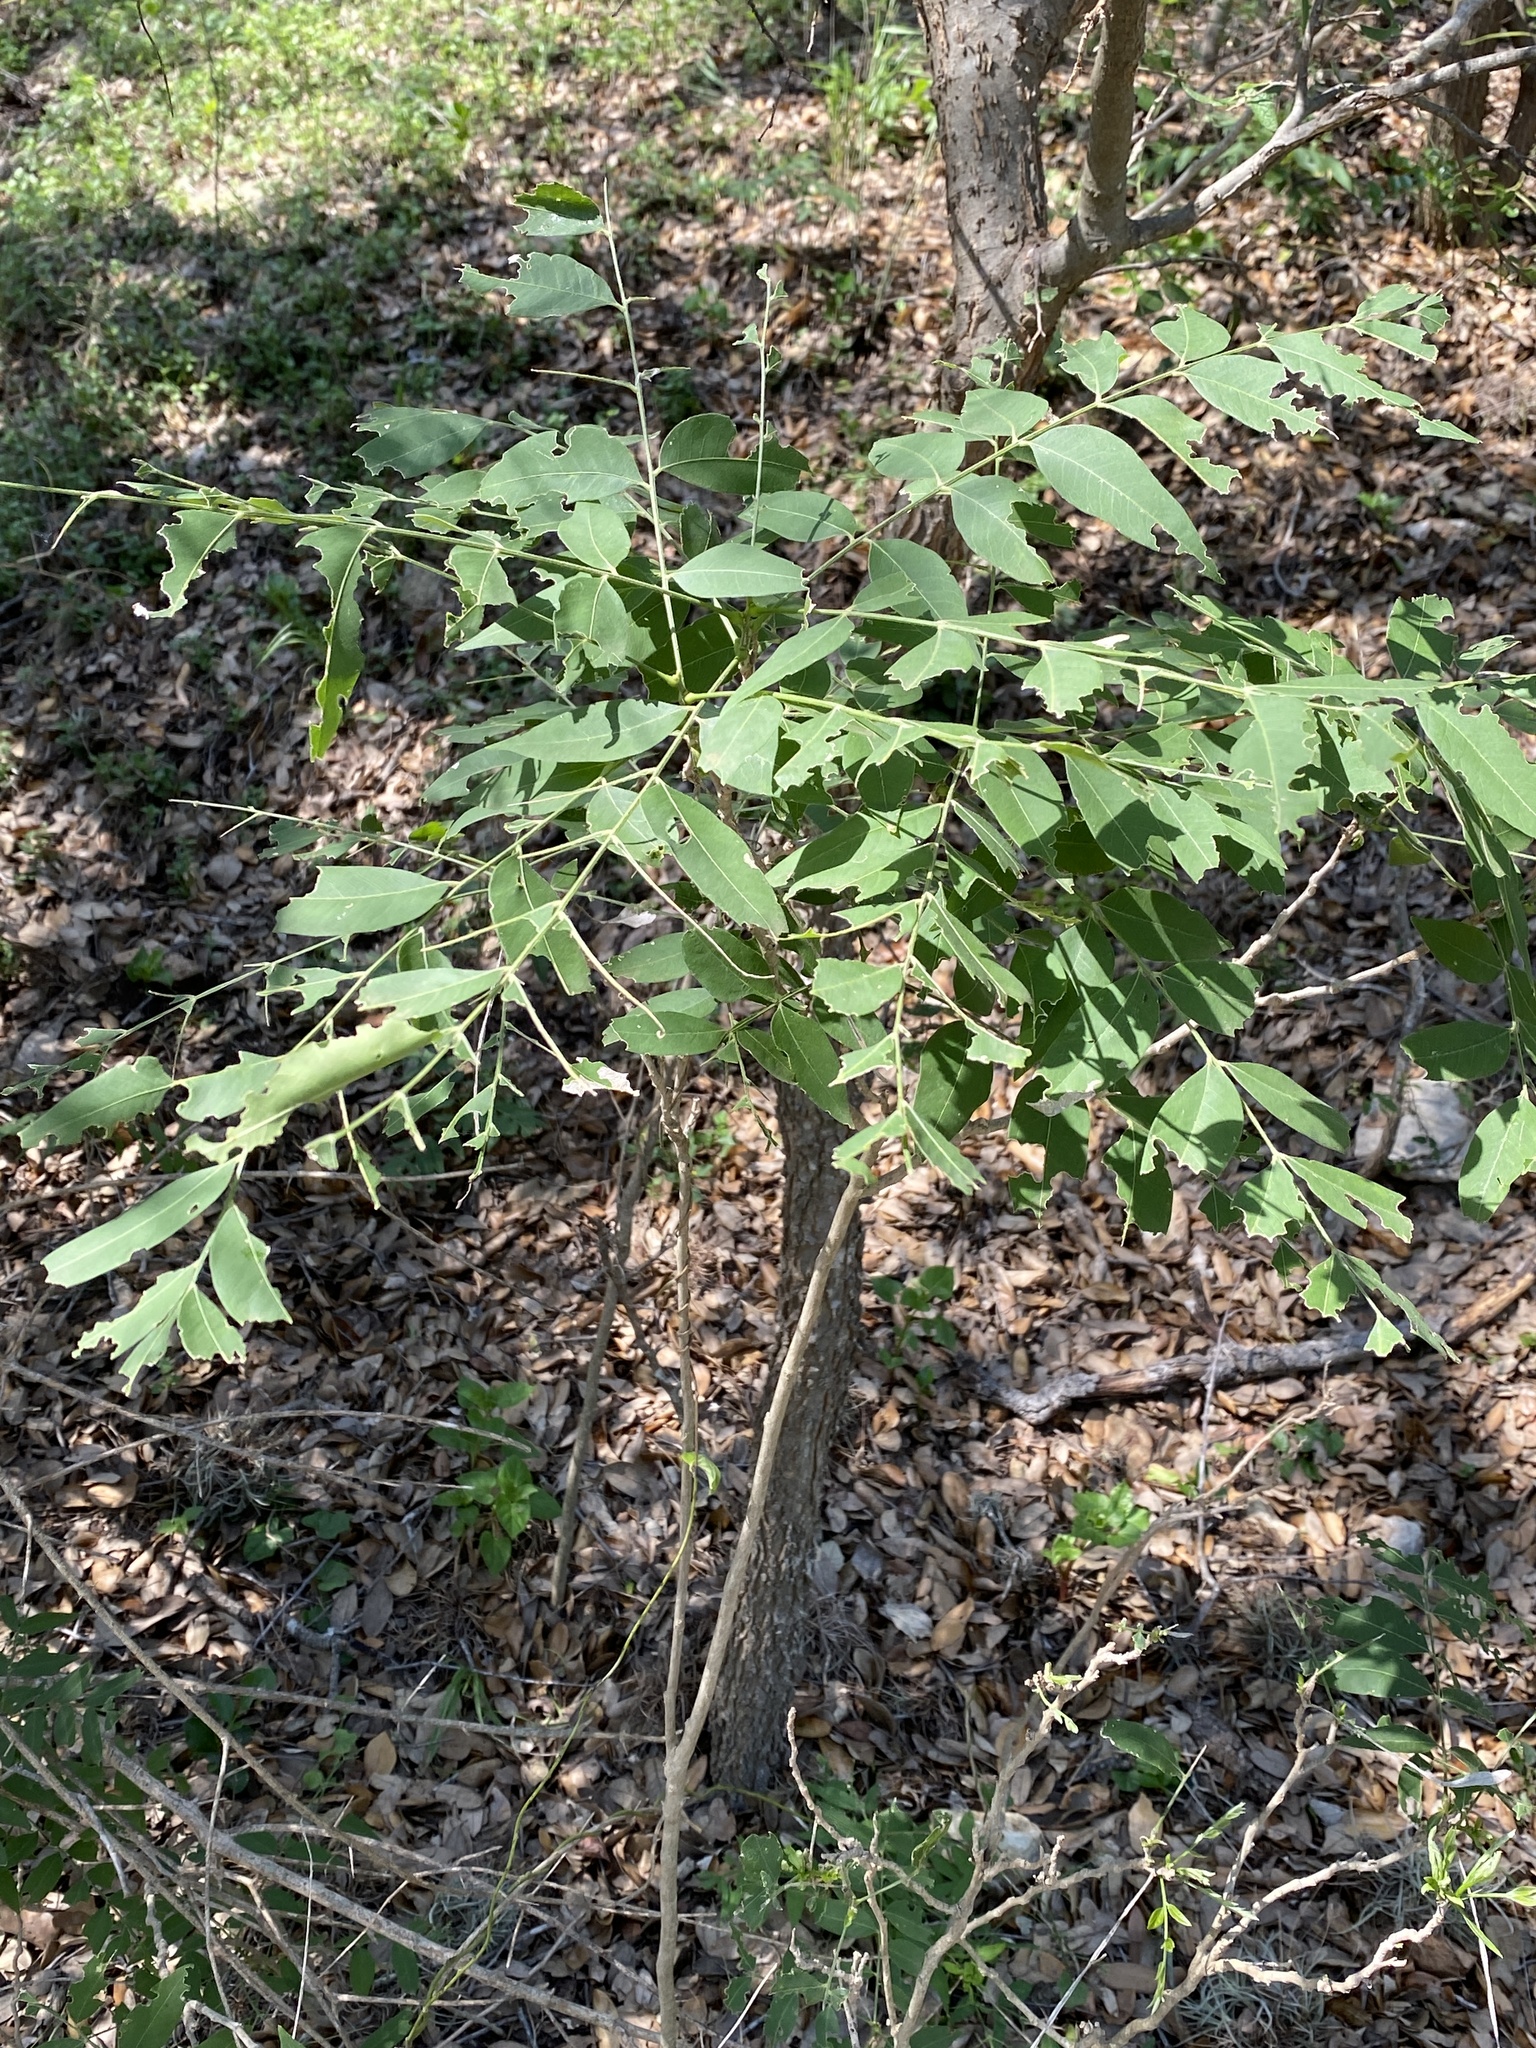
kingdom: Plantae
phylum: Tracheophyta
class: Magnoliopsida
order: Sapindales
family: Sapindaceae
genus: Sapindus
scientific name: Sapindus drummondii
